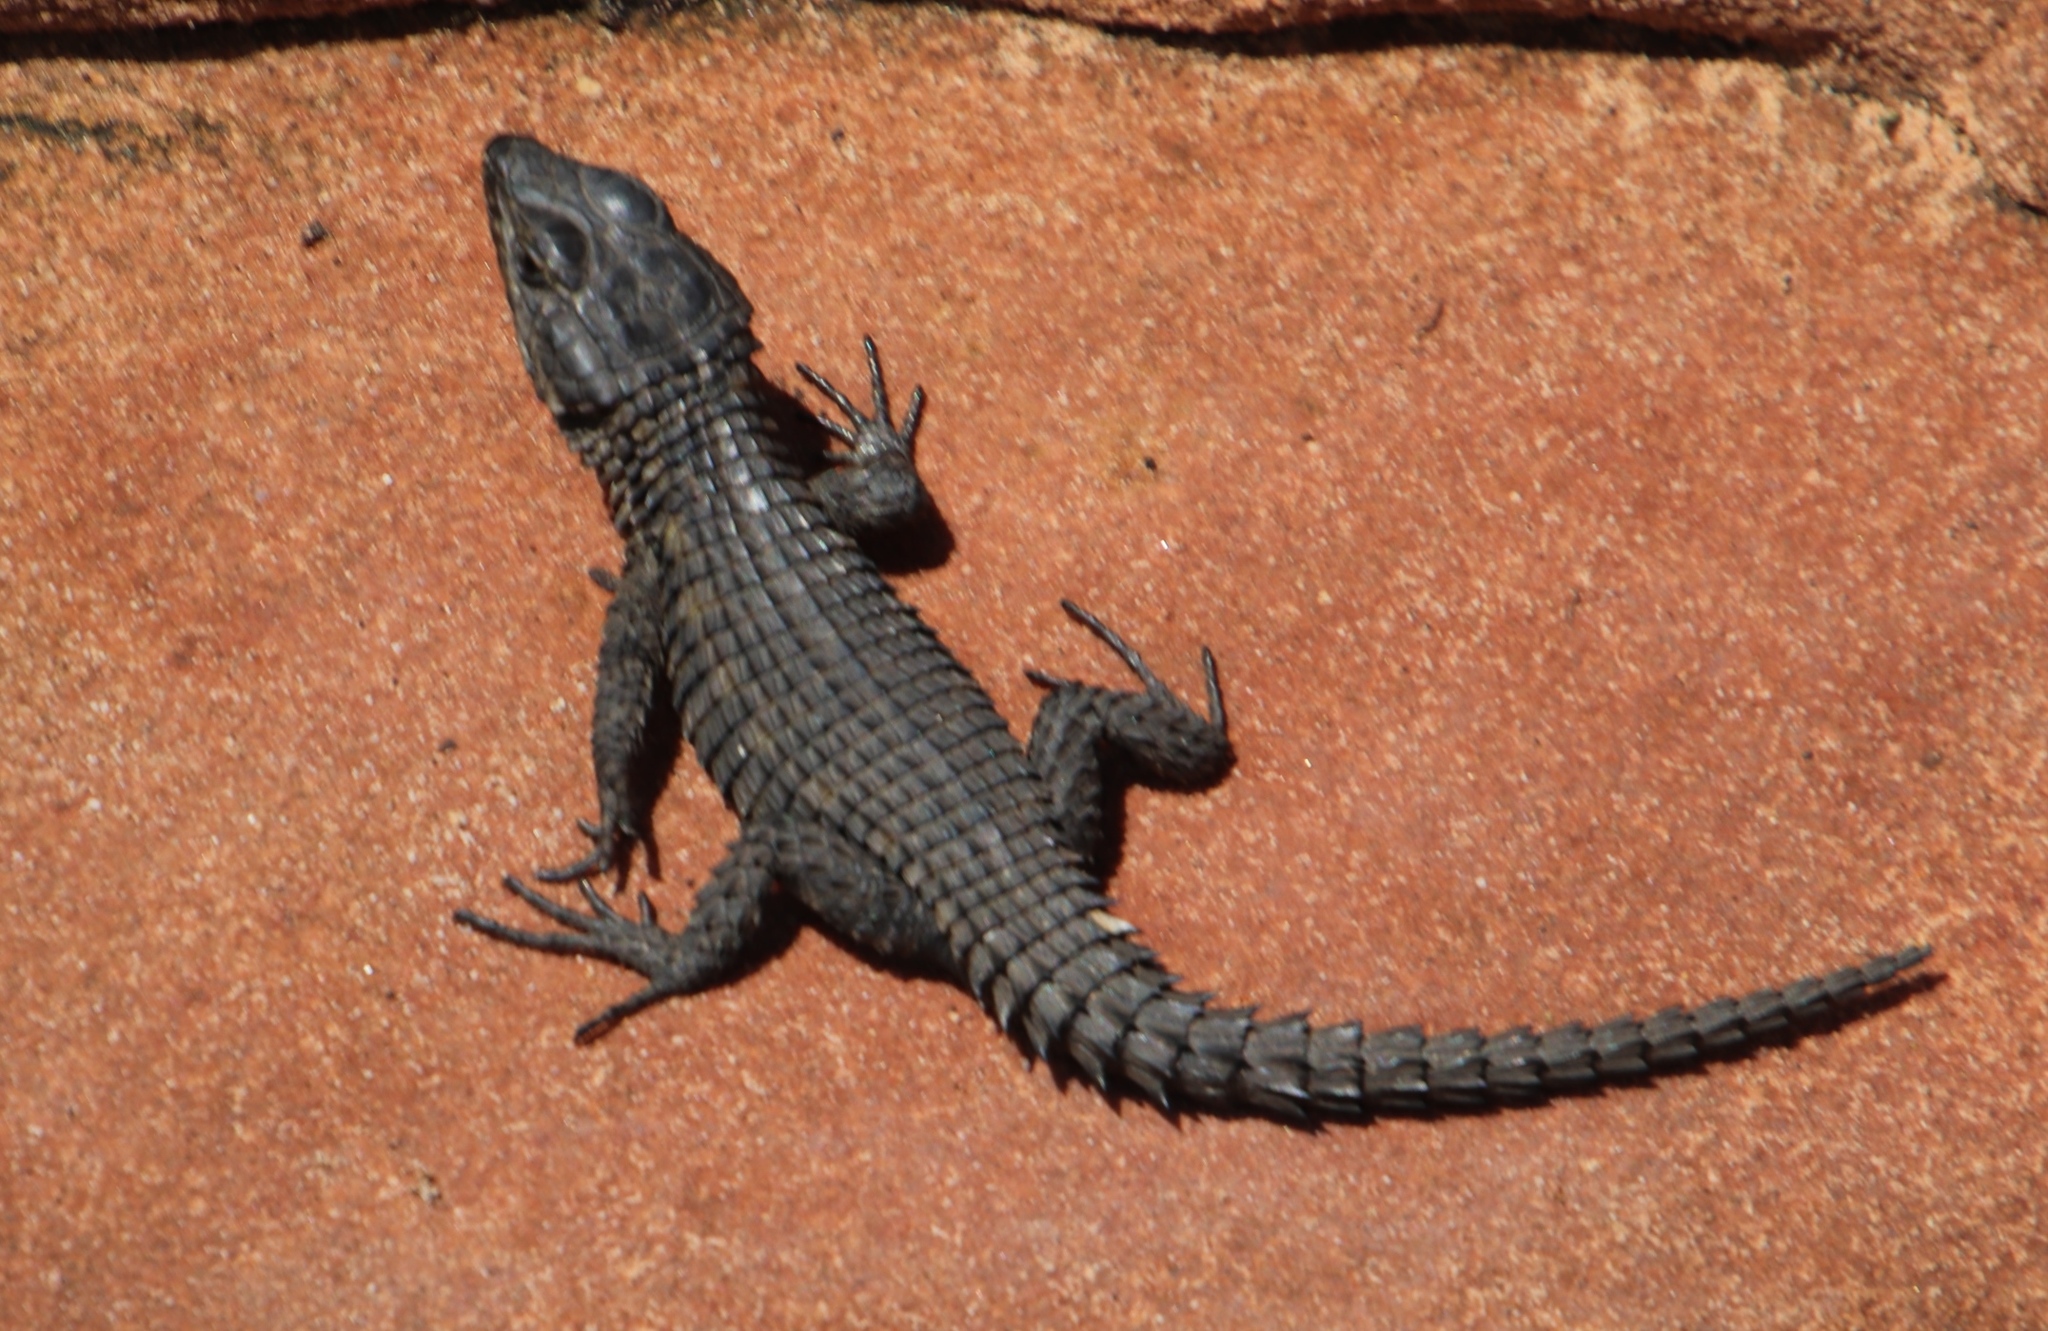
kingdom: Animalia
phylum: Chordata
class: Squamata
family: Cordylidae
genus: Cordylus
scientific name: Cordylus niger
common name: Black girdled lizard
